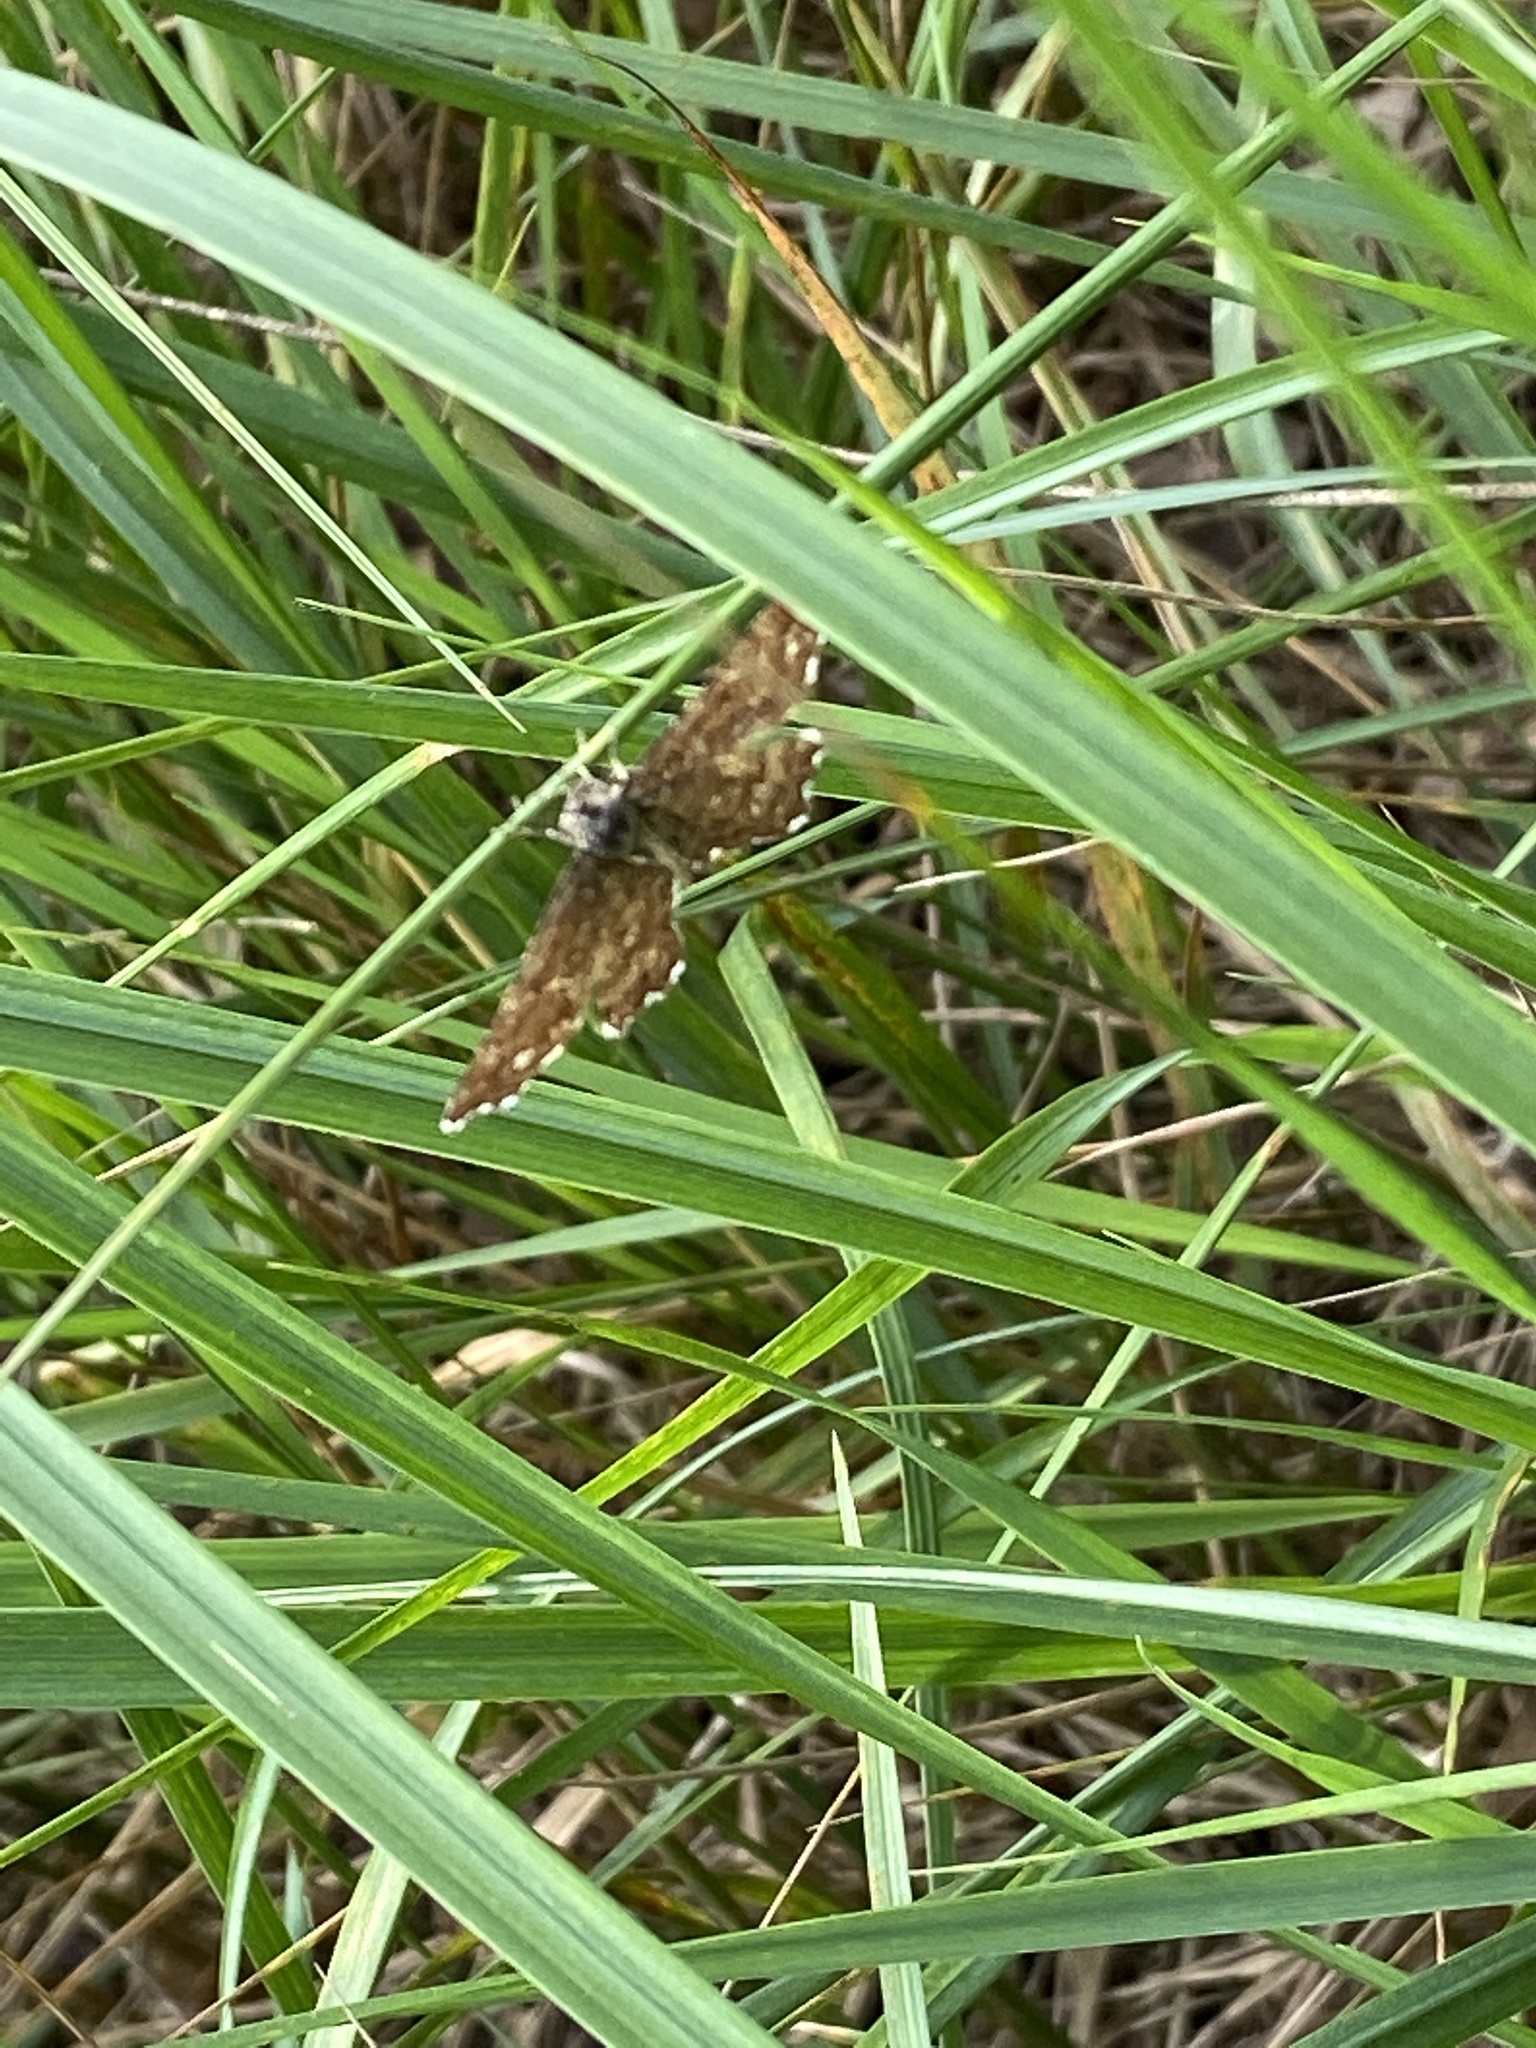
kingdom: Animalia
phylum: Arthropoda
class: Insecta
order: Lepidoptera
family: Geometridae
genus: Ematurga
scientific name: Ematurga atomaria
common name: Common heath
